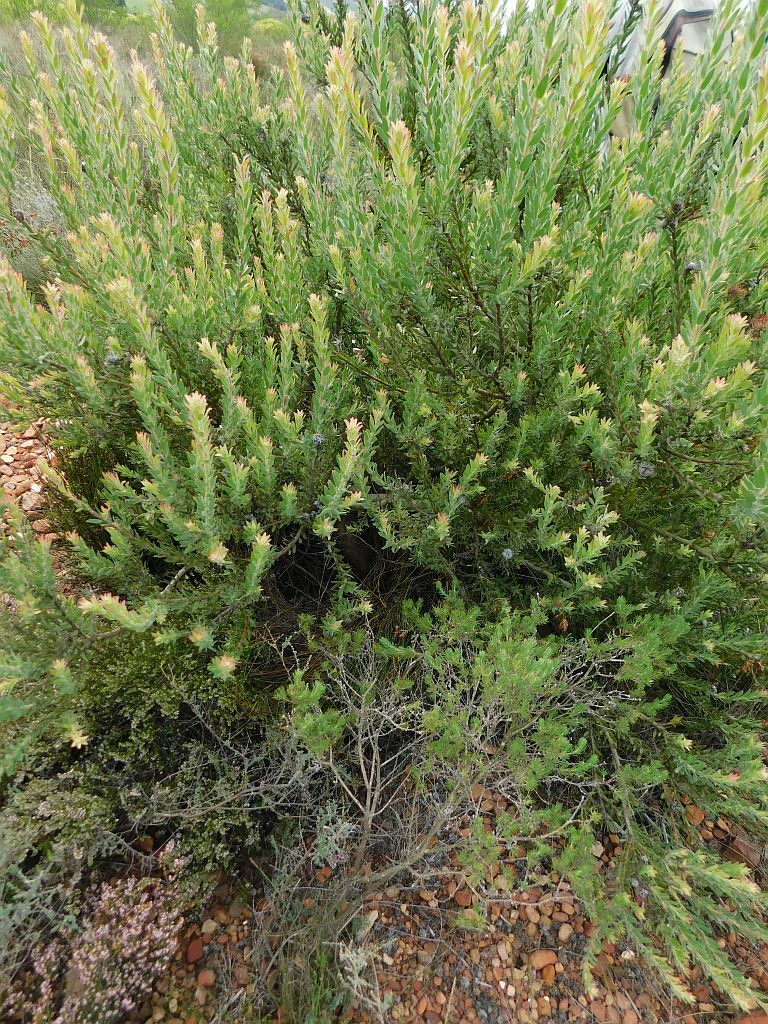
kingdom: Plantae
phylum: Tracheophyta
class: Magnoliopsida
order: Proteales
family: Proteaceae
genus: Leucospermum
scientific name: Leucospermum calligerum
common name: Arid pincushion
